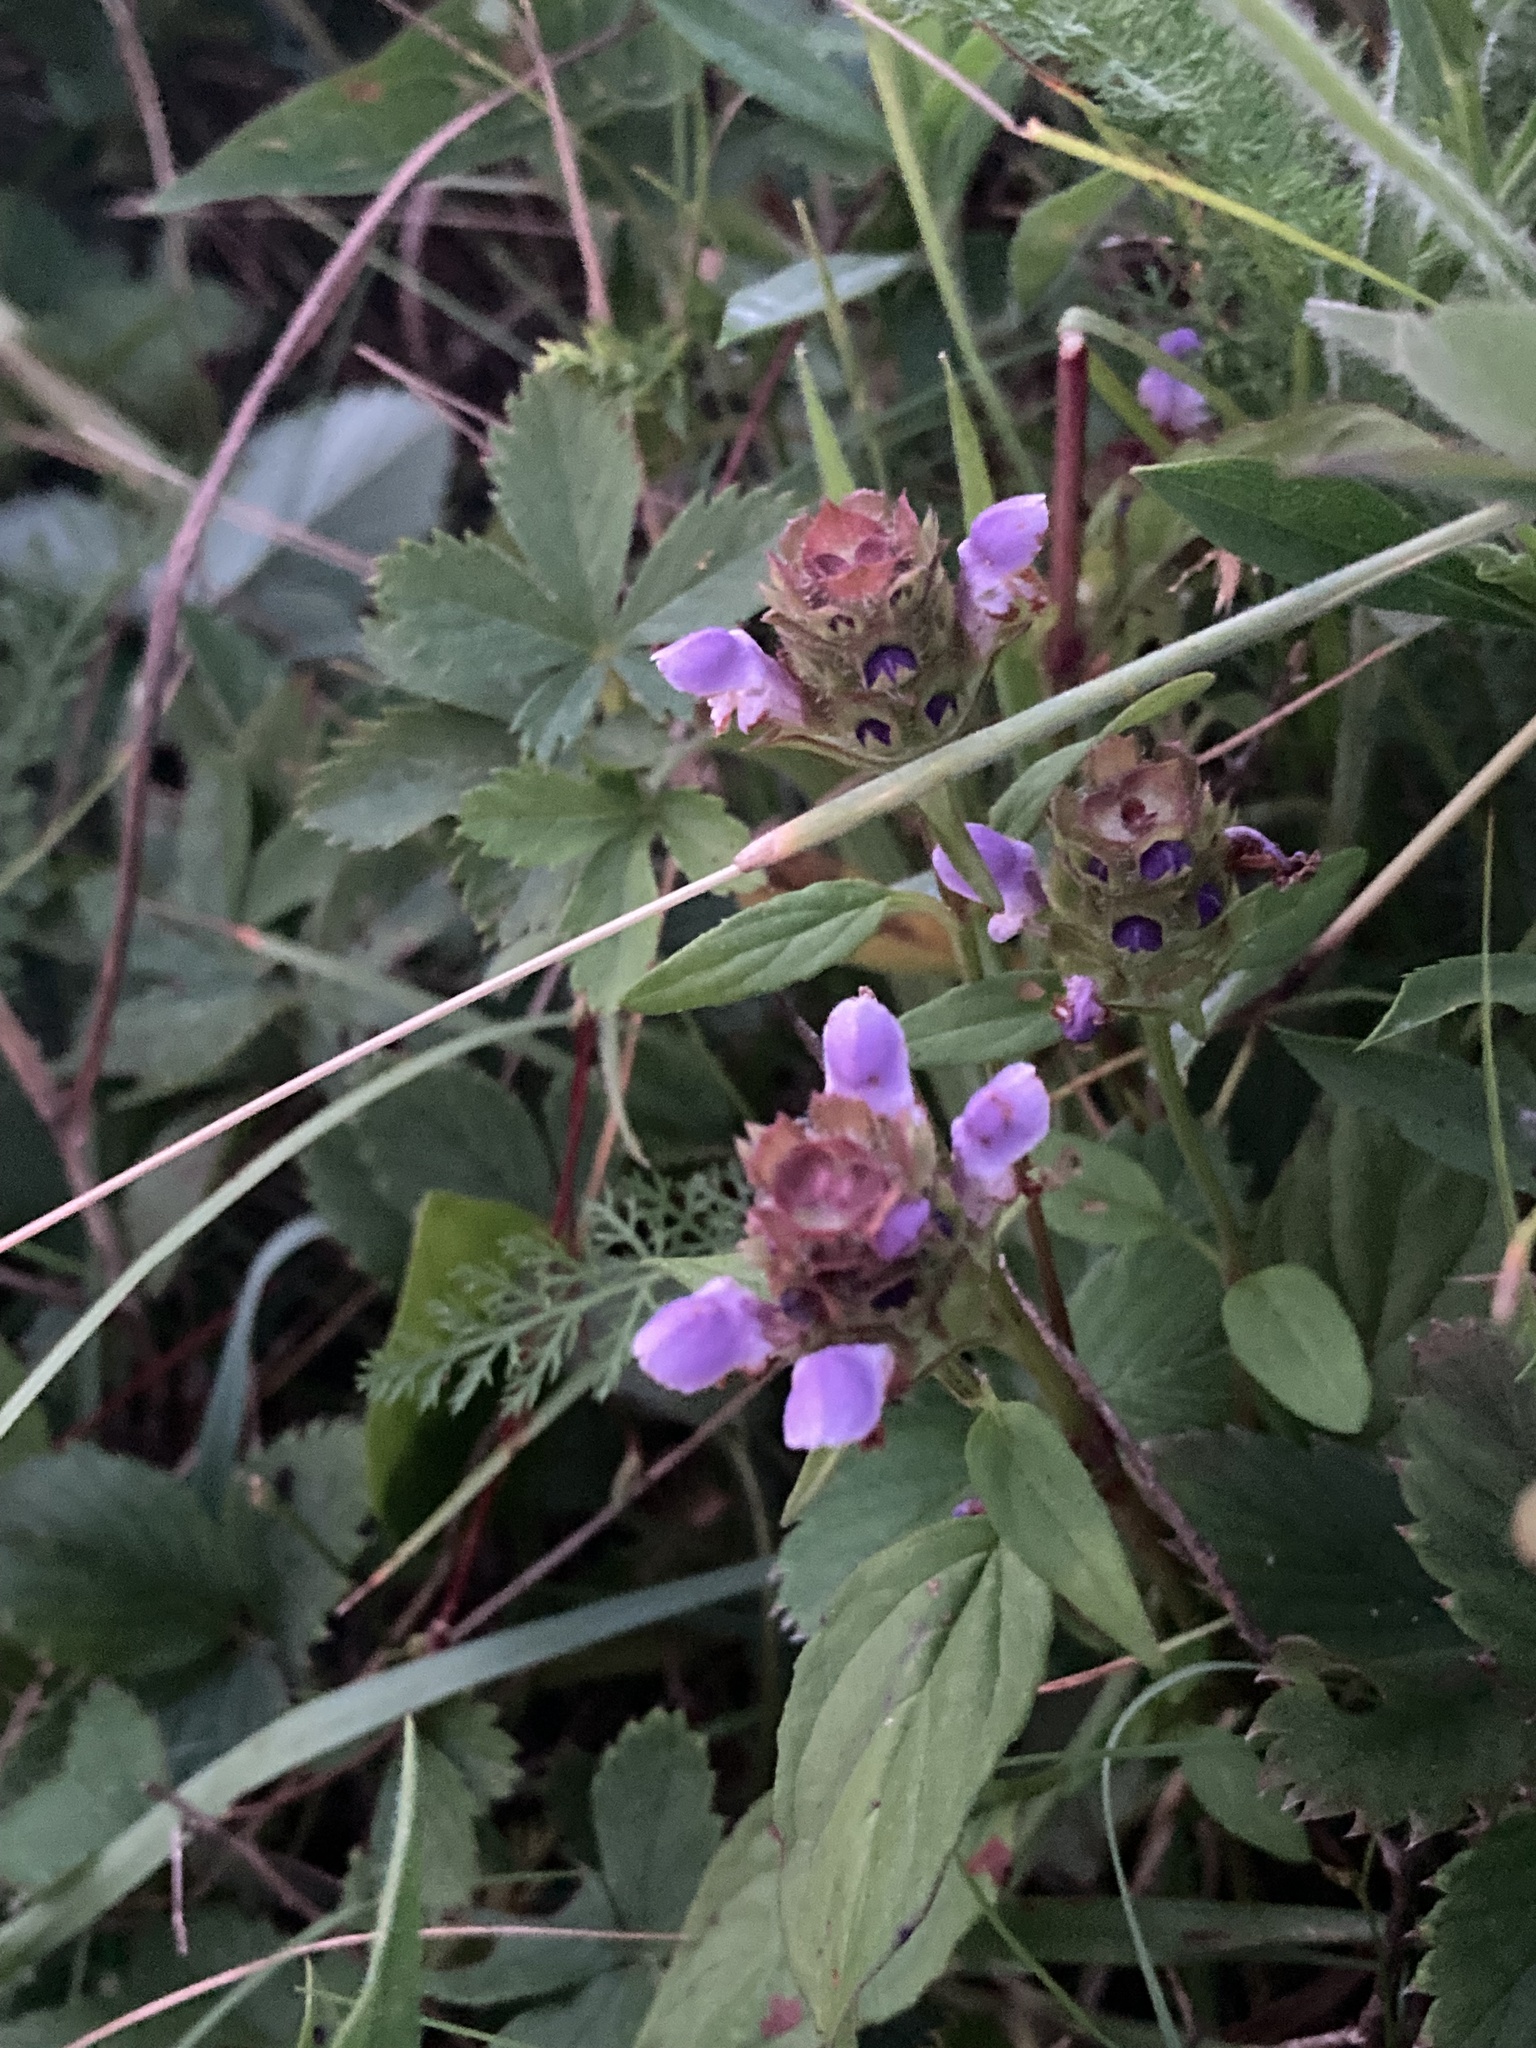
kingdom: Plantae
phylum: Tracheophyta
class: Magnoliopsida
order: Lamiales
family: Lamiaceae
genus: Prunella
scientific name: Prunella vulgaris
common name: Heal-all
